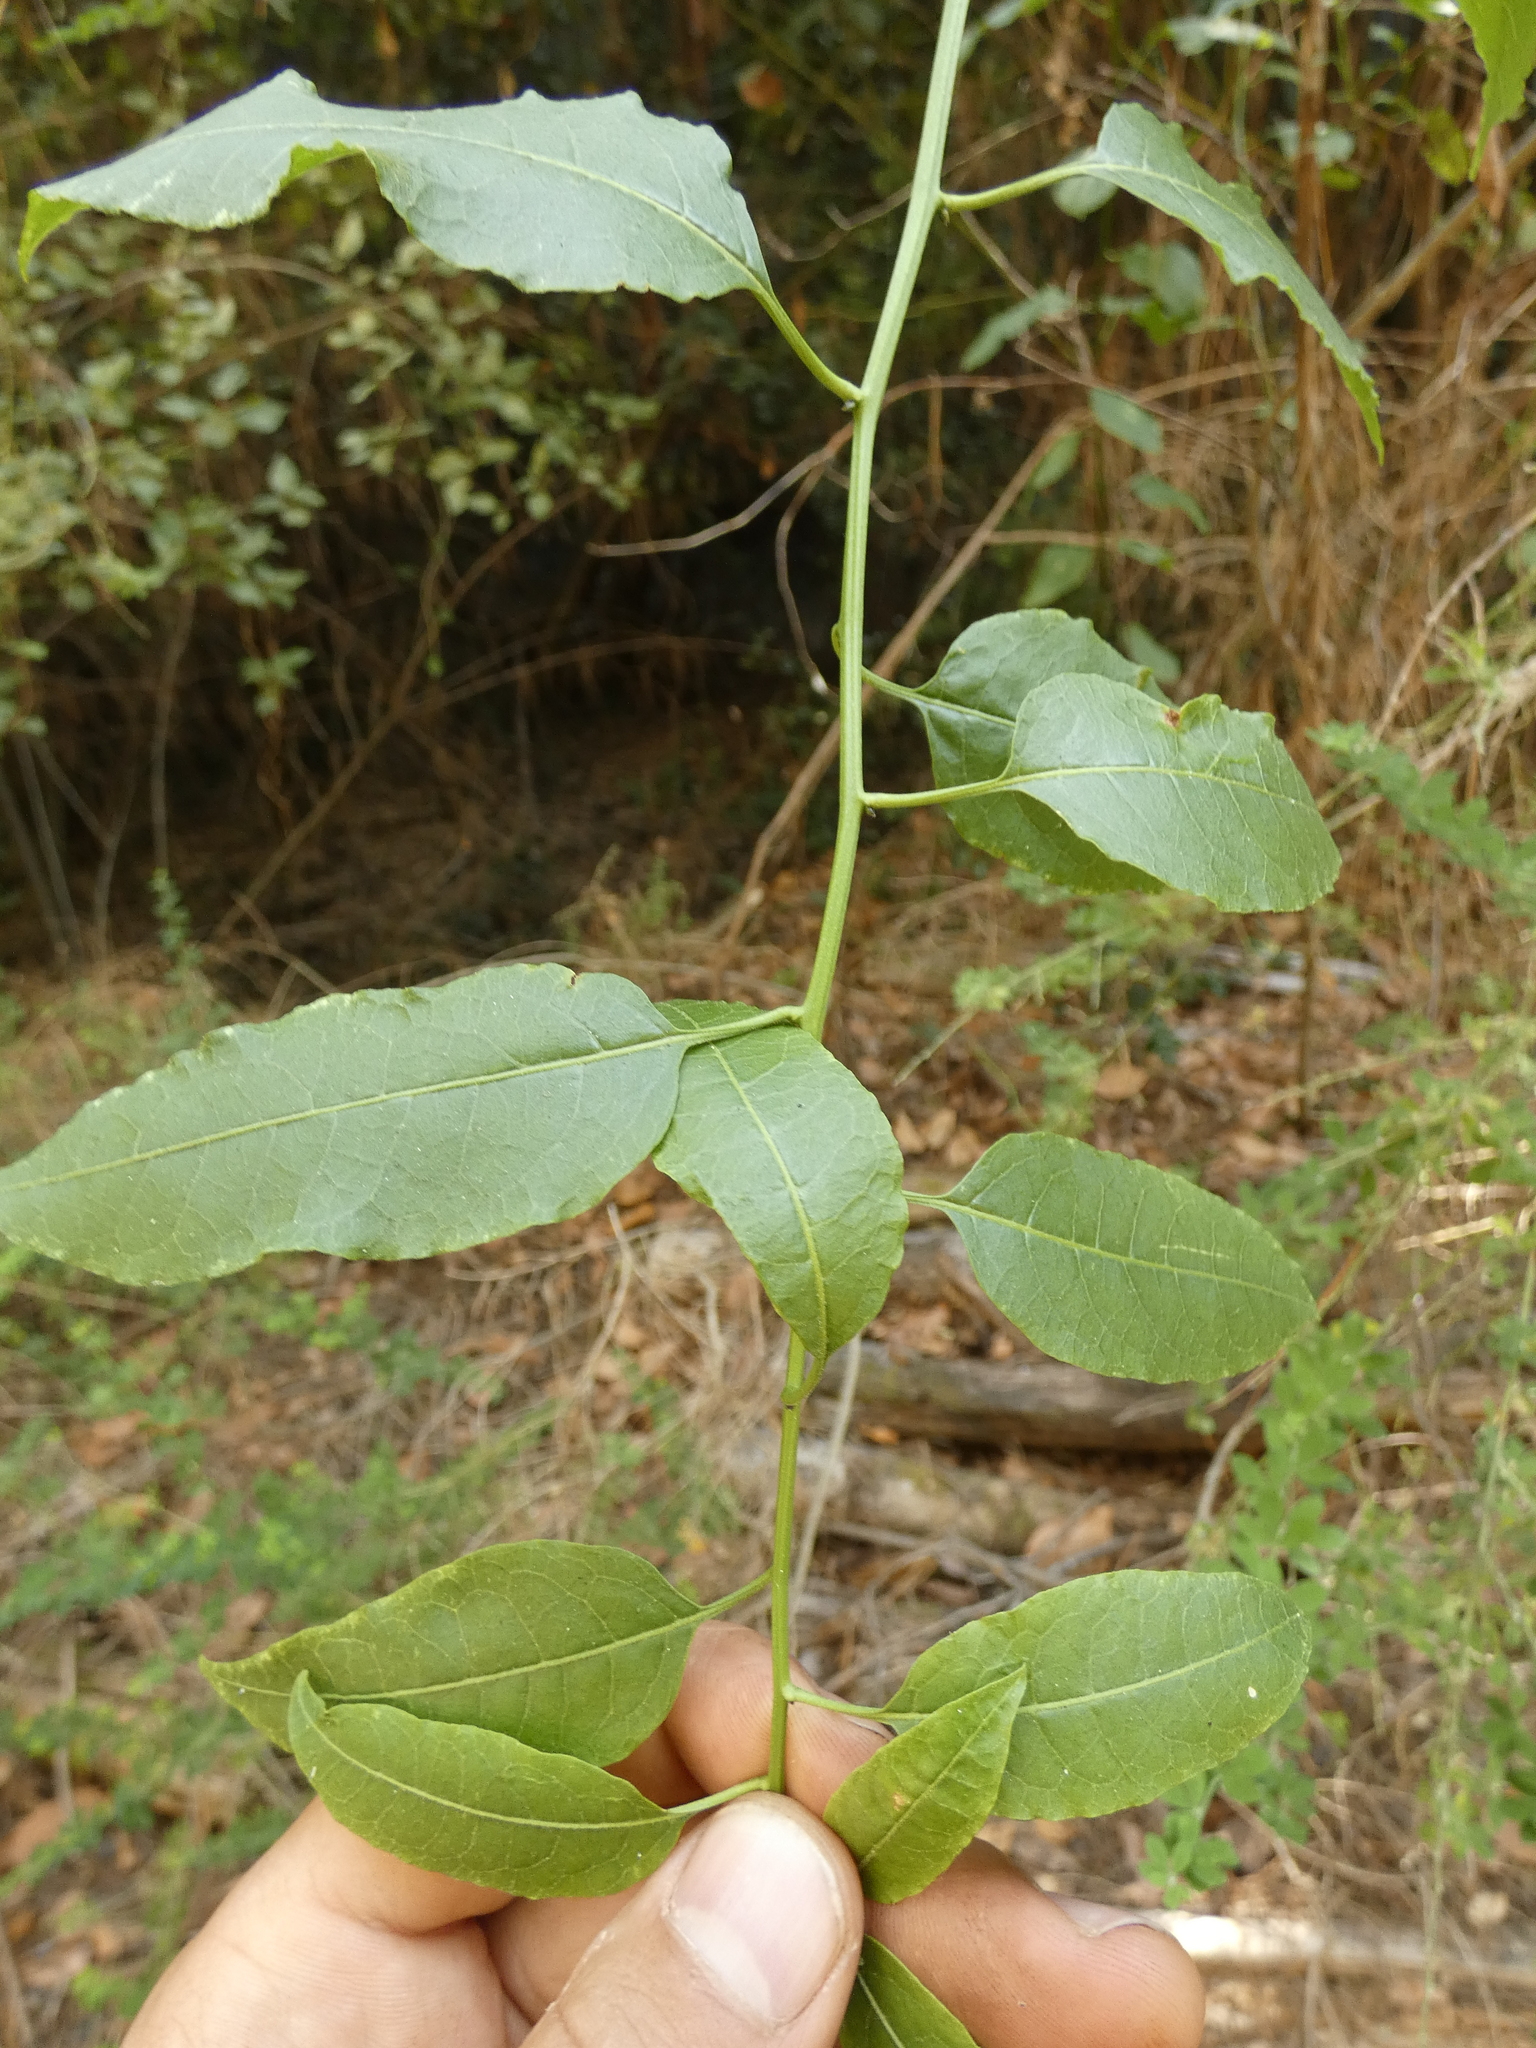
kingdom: Plantae
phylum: Tracheophyta
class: Magnoliopsida
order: Asterales
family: Asteraceae
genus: Acrisione
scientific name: Acrisione denticulata
